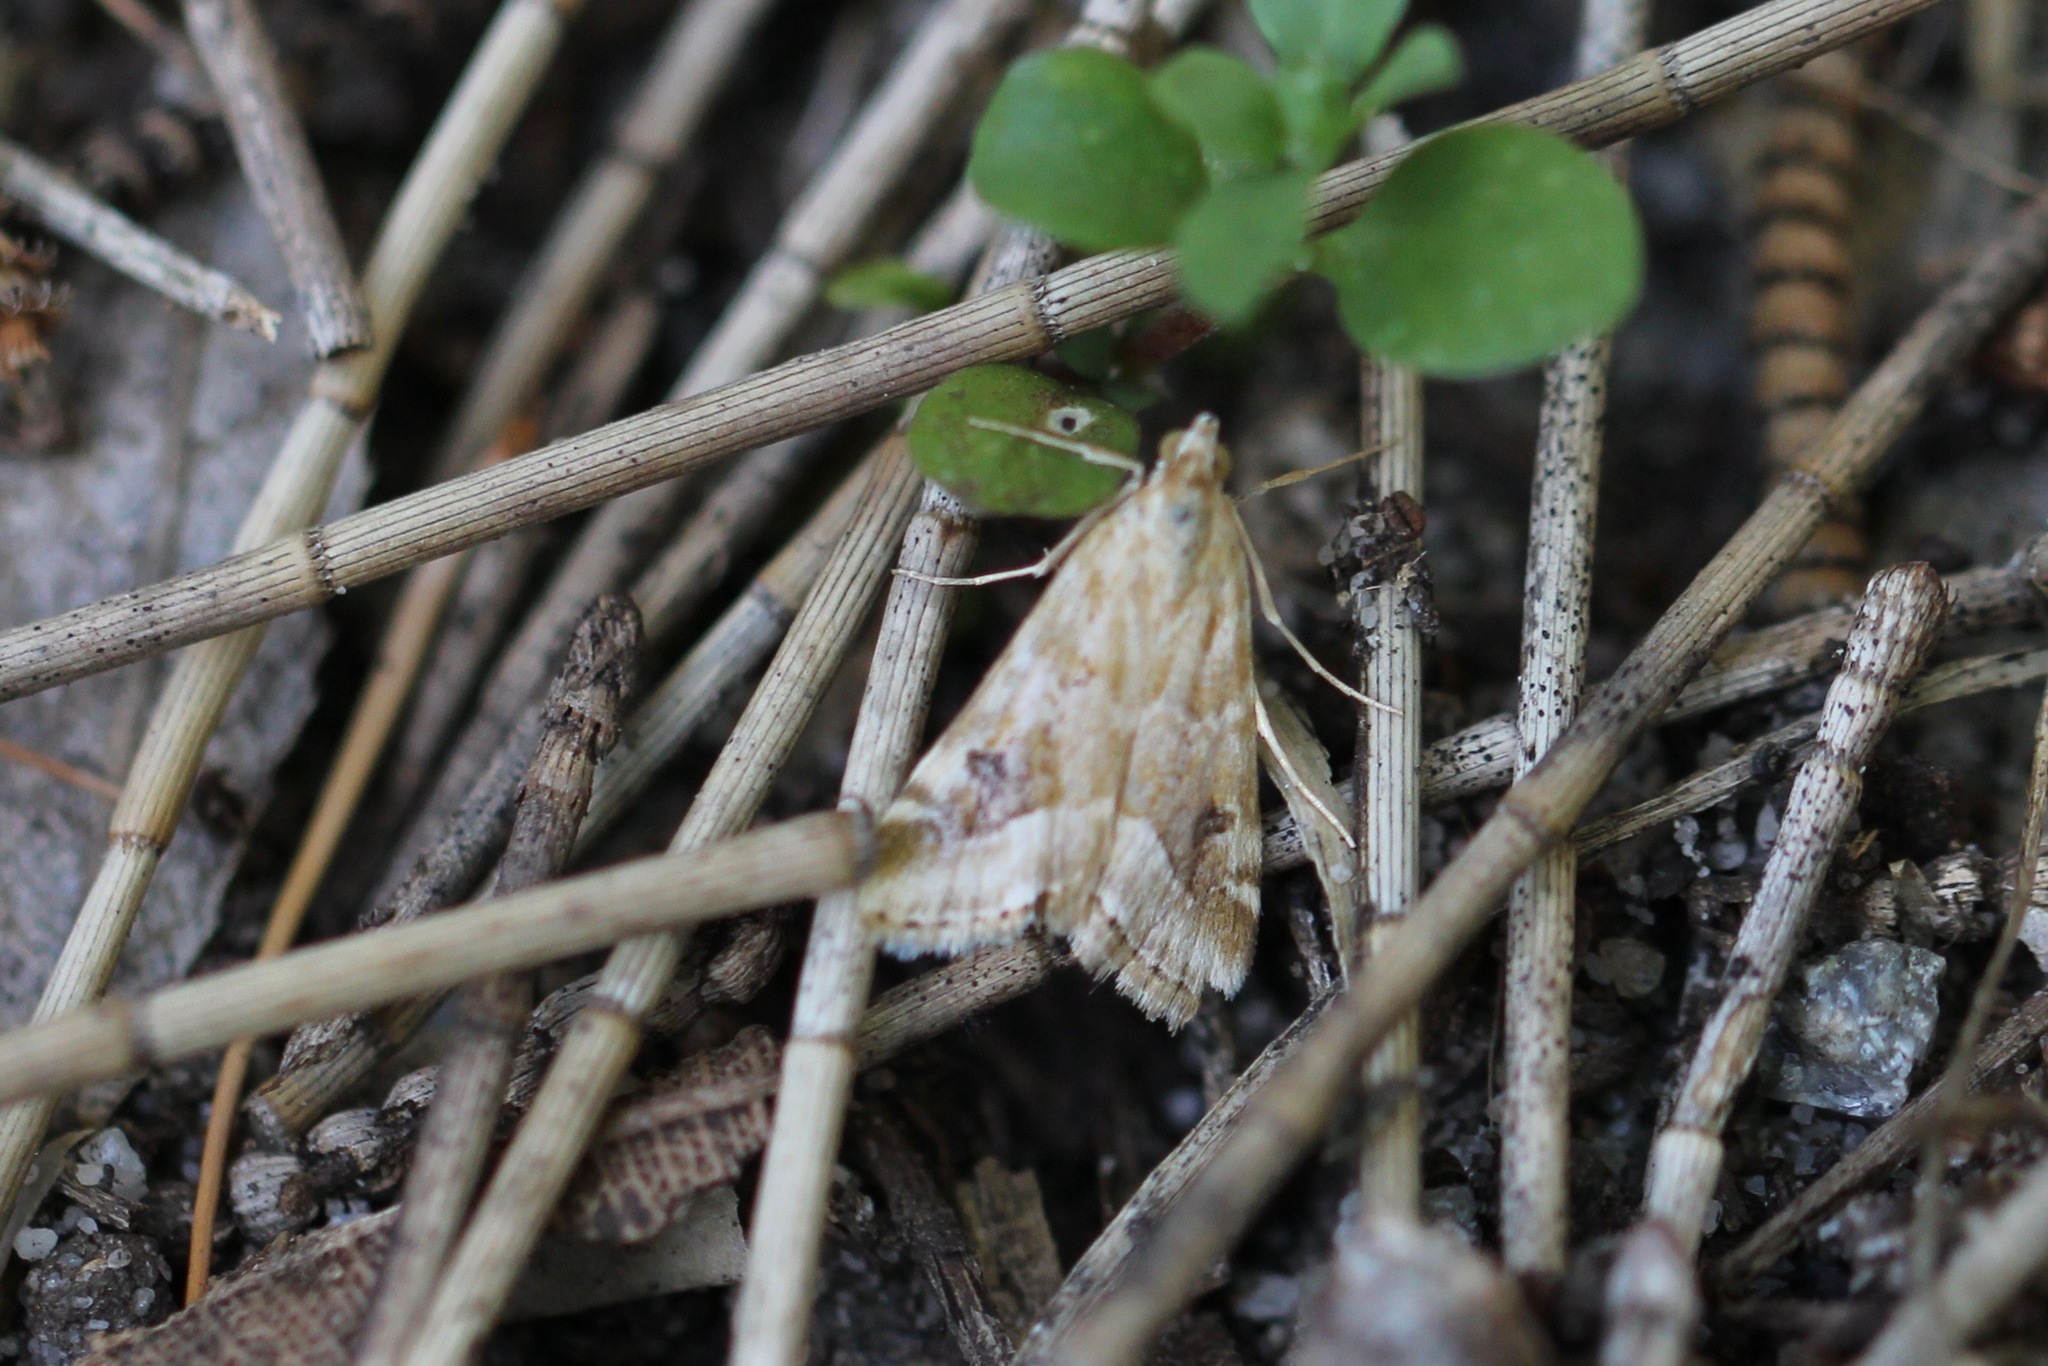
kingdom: Animalia
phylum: Arthropoda
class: Insecta
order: Lepidoptera
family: Crambidae
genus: Hellula
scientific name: Hellula hydralis
